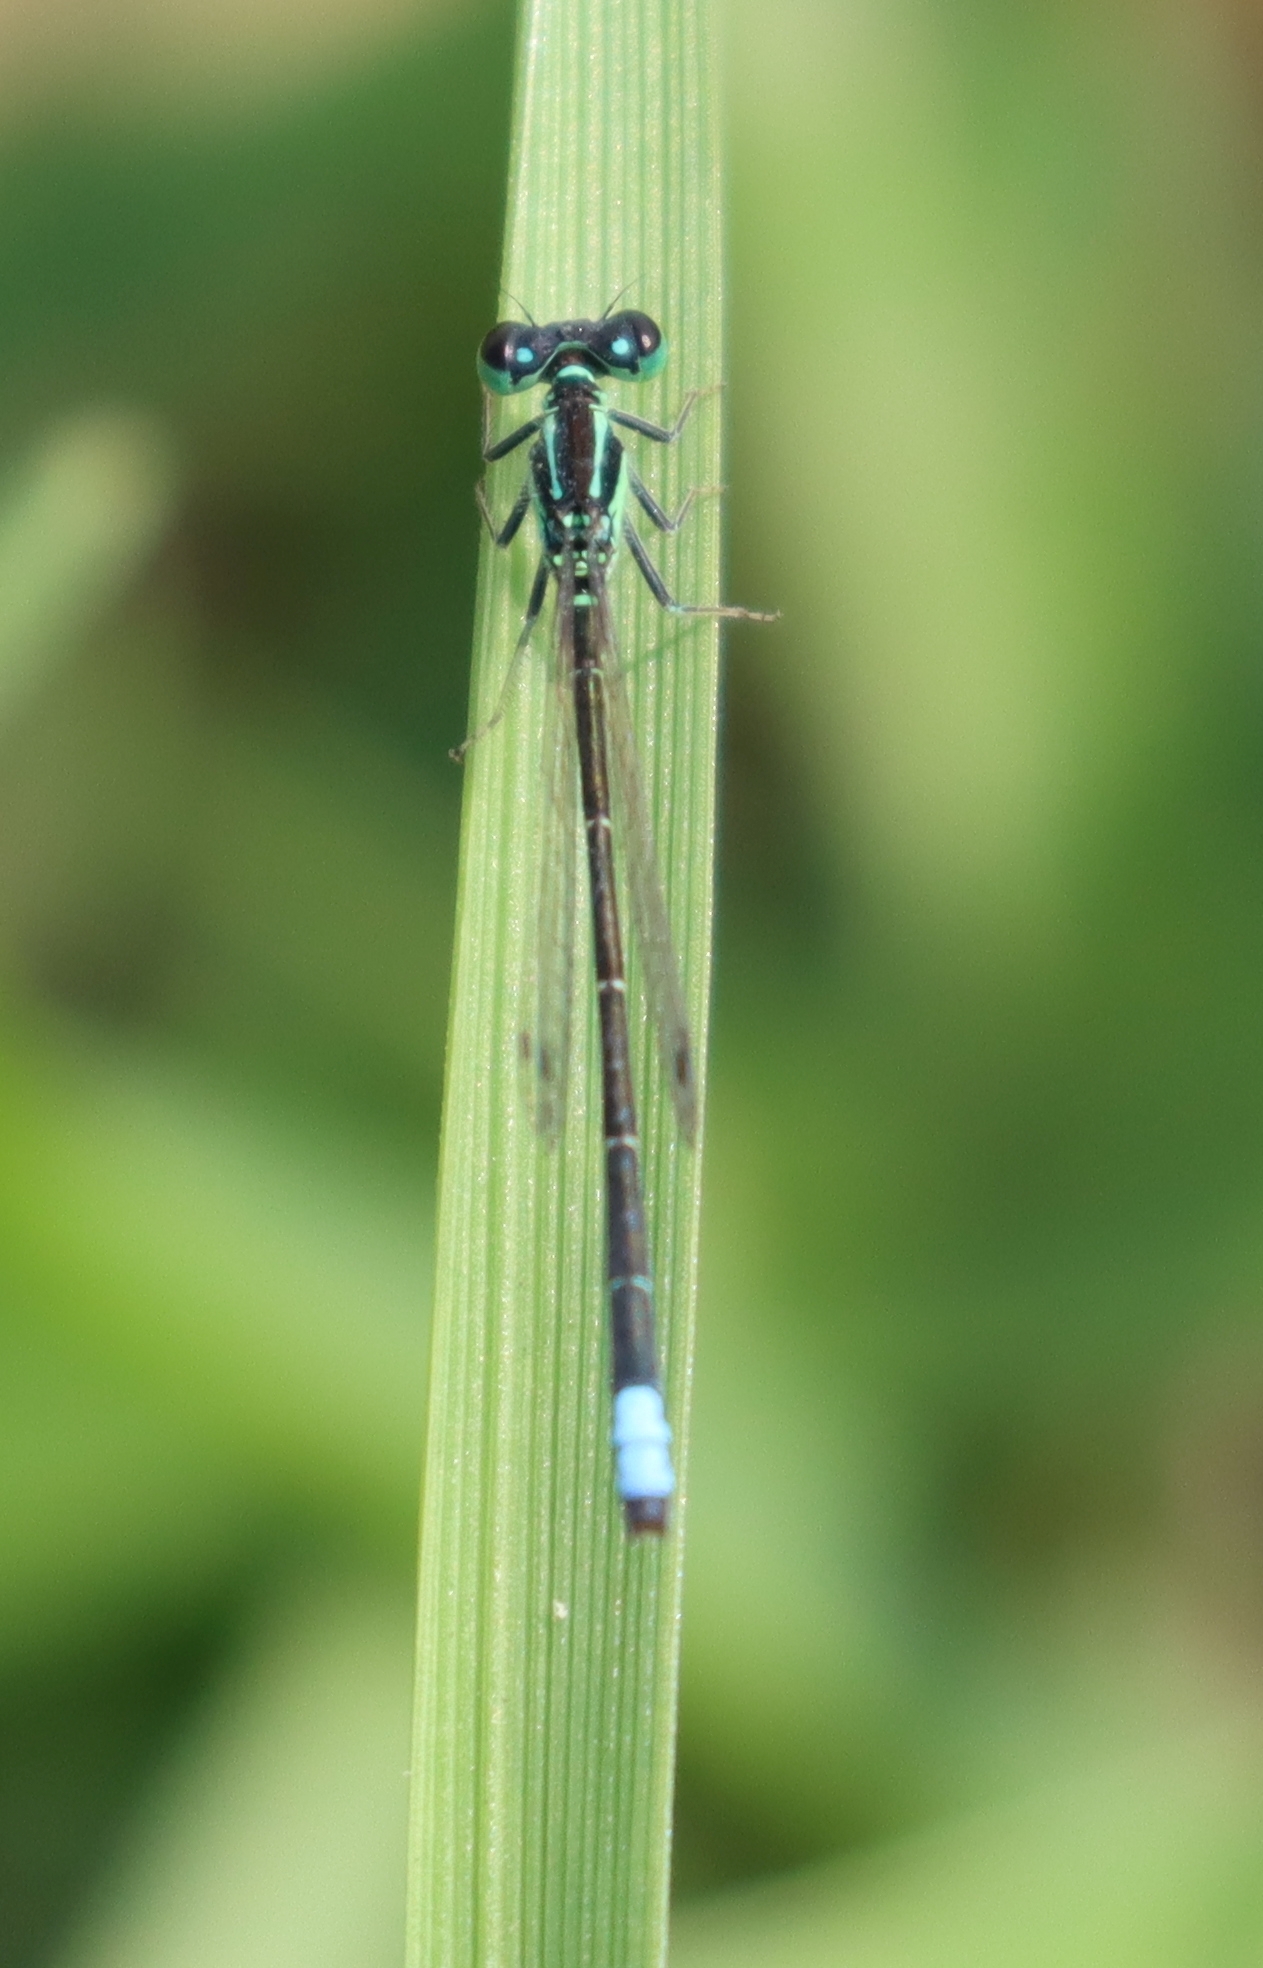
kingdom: Animalia
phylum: Arthropoda
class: Insecta
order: Odonata
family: Coenagrionidae
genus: Ischnura
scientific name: Ischnura verticalis
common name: Eastern forktail
